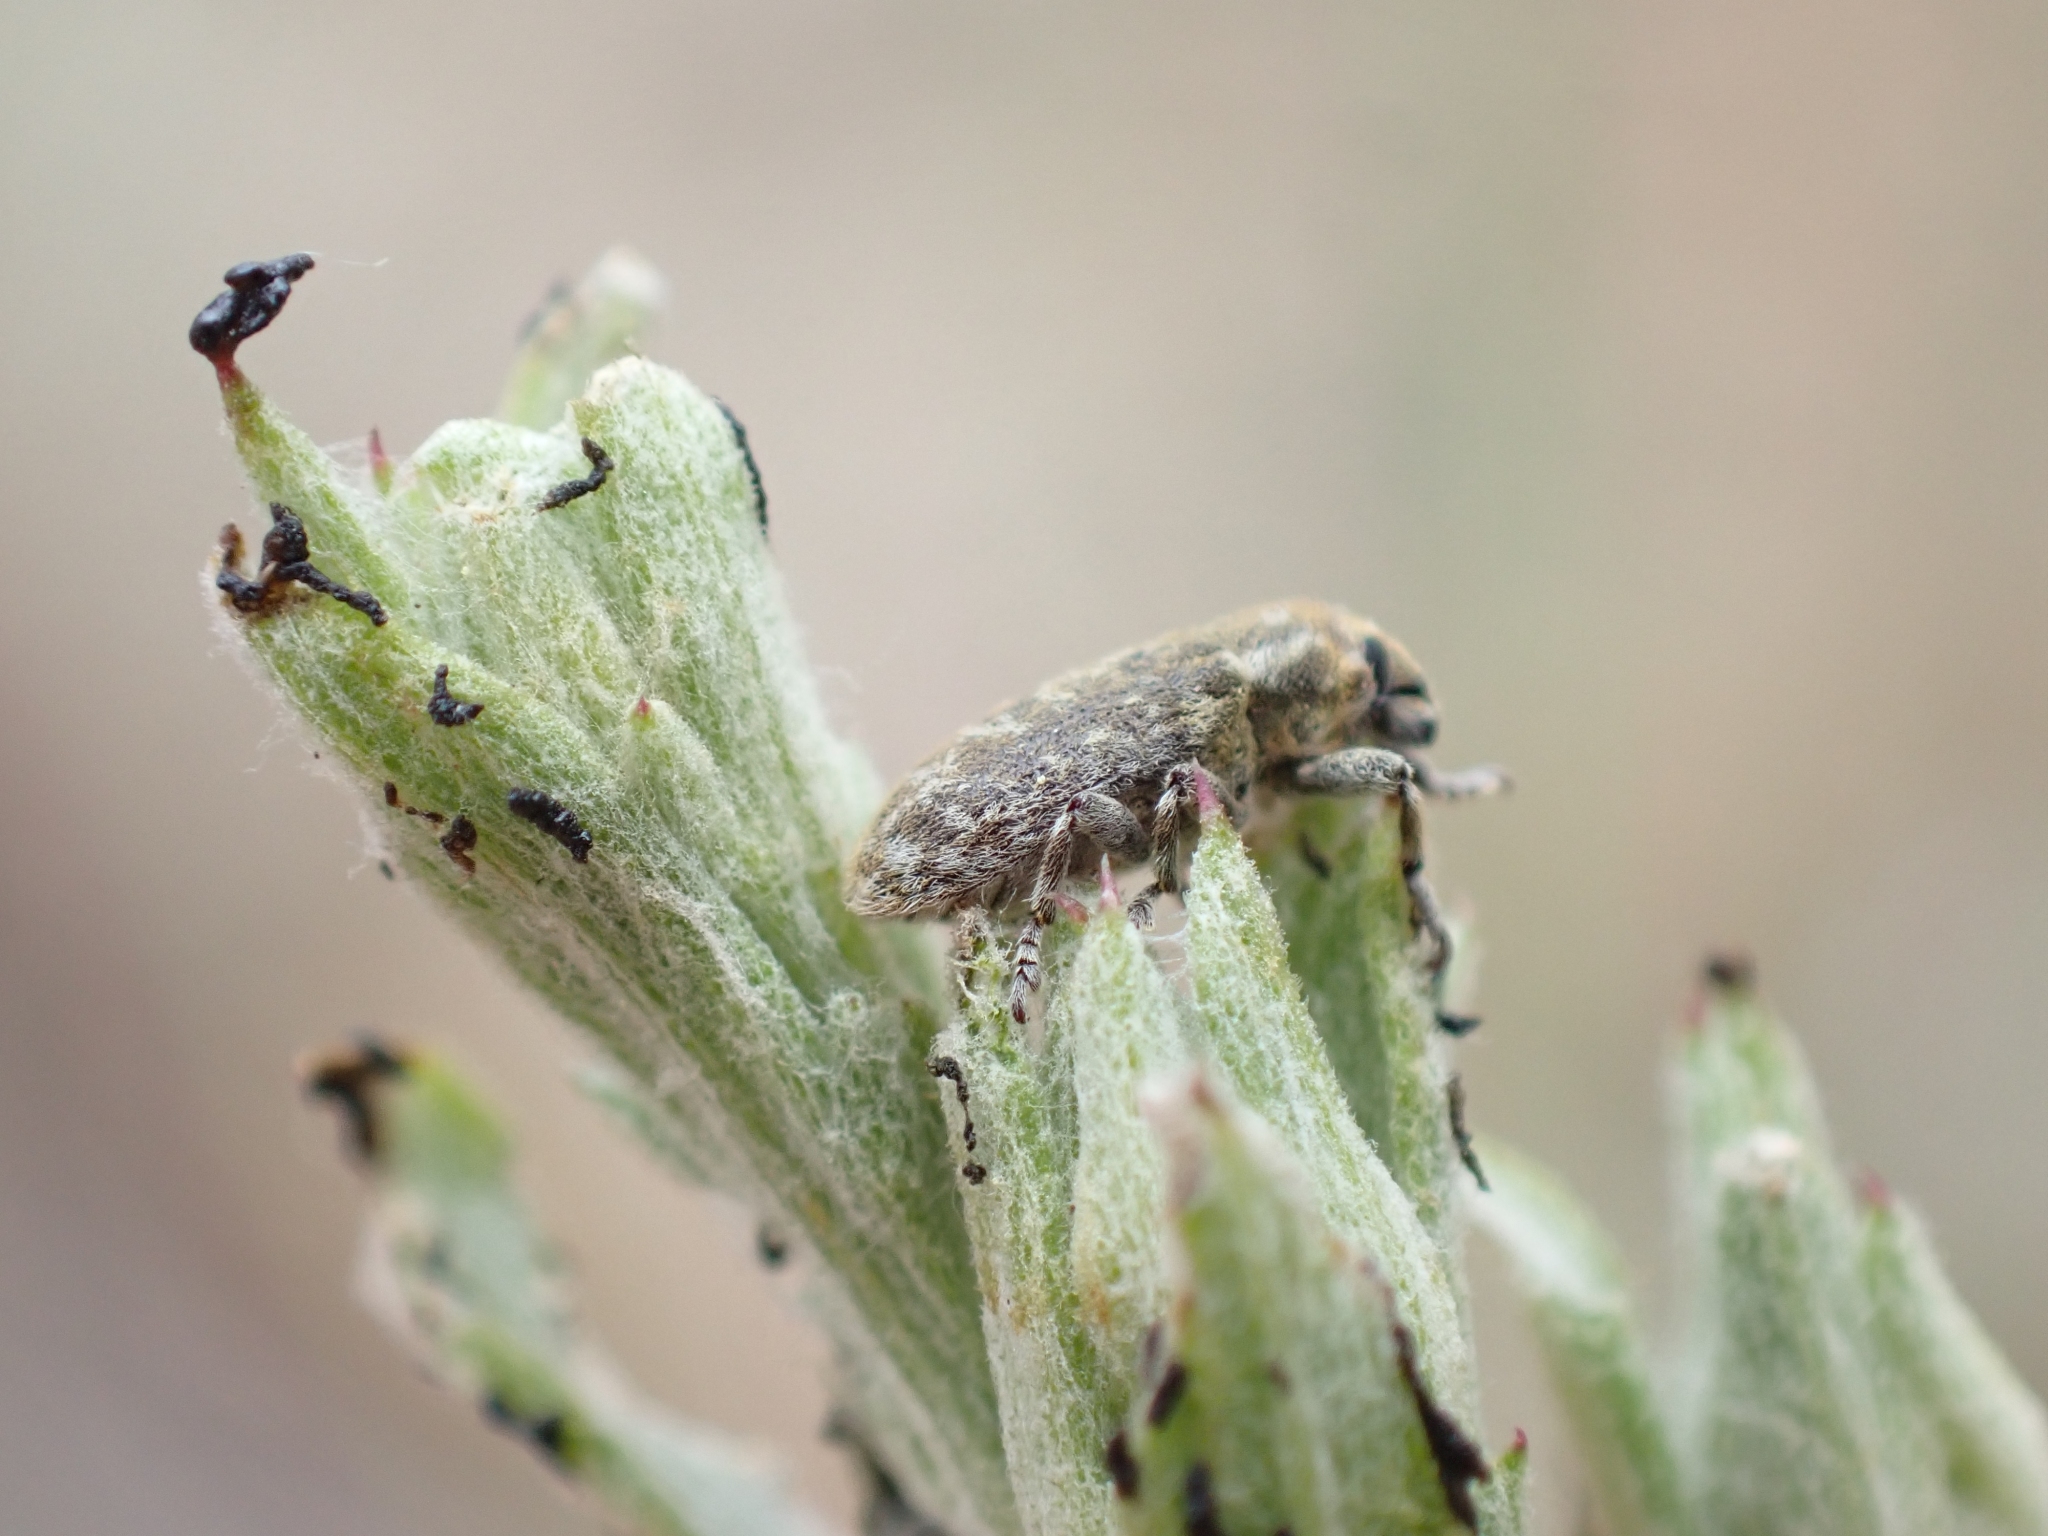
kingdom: Animalia
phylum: Arthropoda
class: Insecta
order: Coleoptera
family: Curculionidae
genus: Bangasternus
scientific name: Bangasternus fausti
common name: Broad-nosed knapweed seedhead weevil
